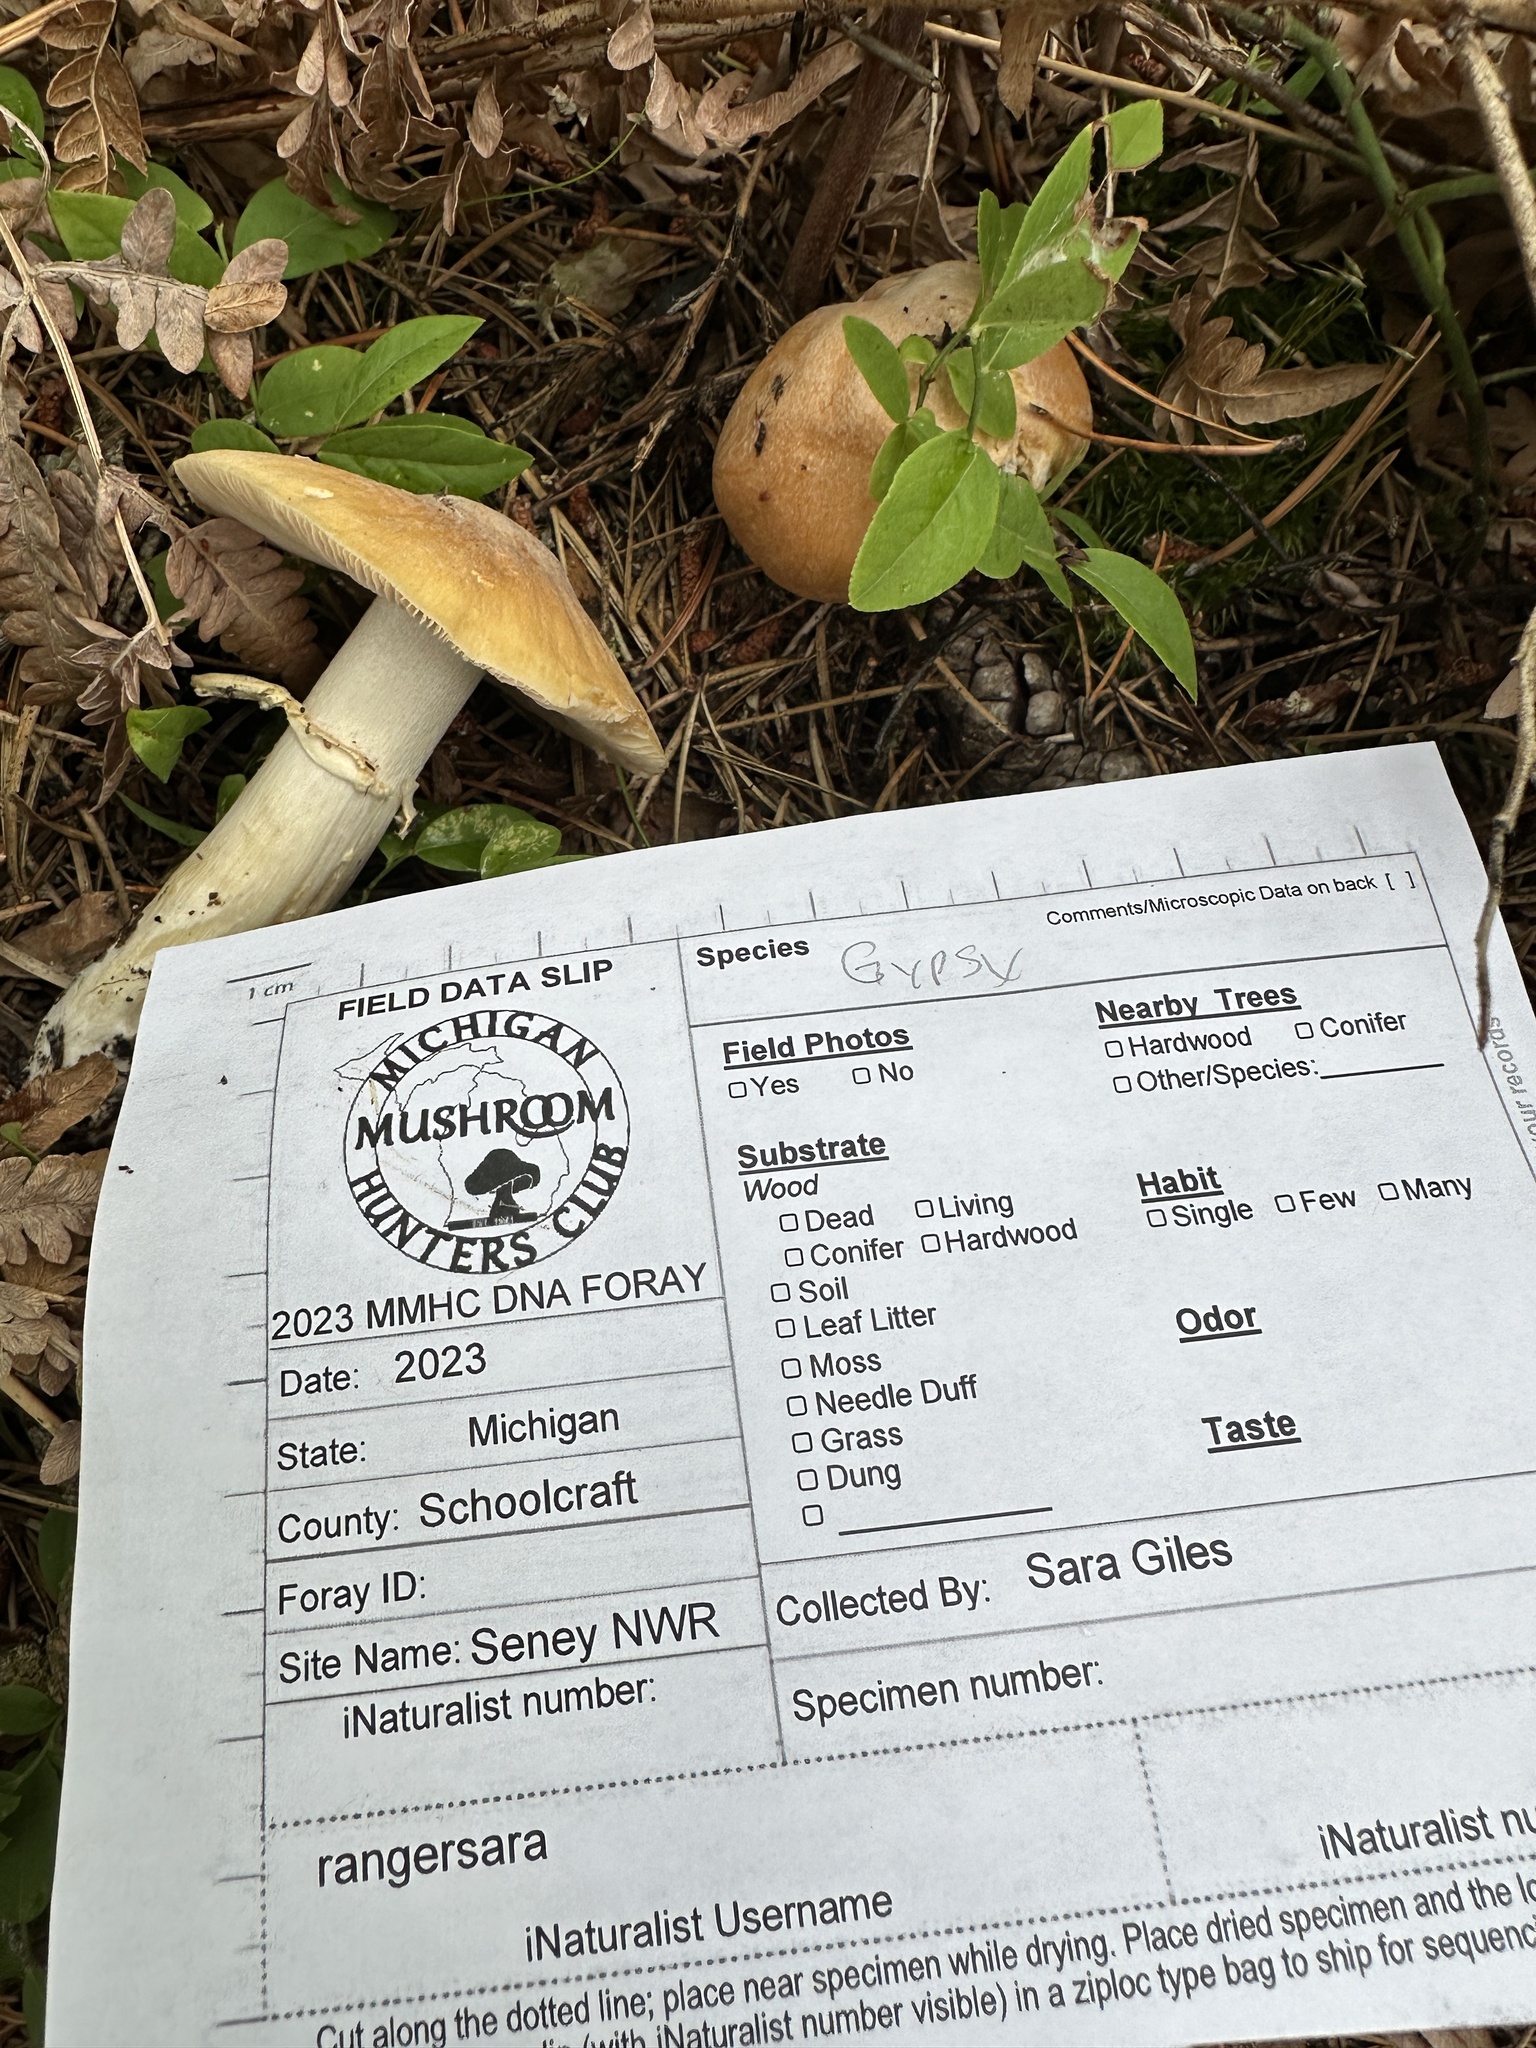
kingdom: Fungi
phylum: Basidiomycota
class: Agaricomycetes
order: Agaricales
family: Cortinariaceae
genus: Cortinarius
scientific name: Cortinarius caperatus
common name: The gypsy
